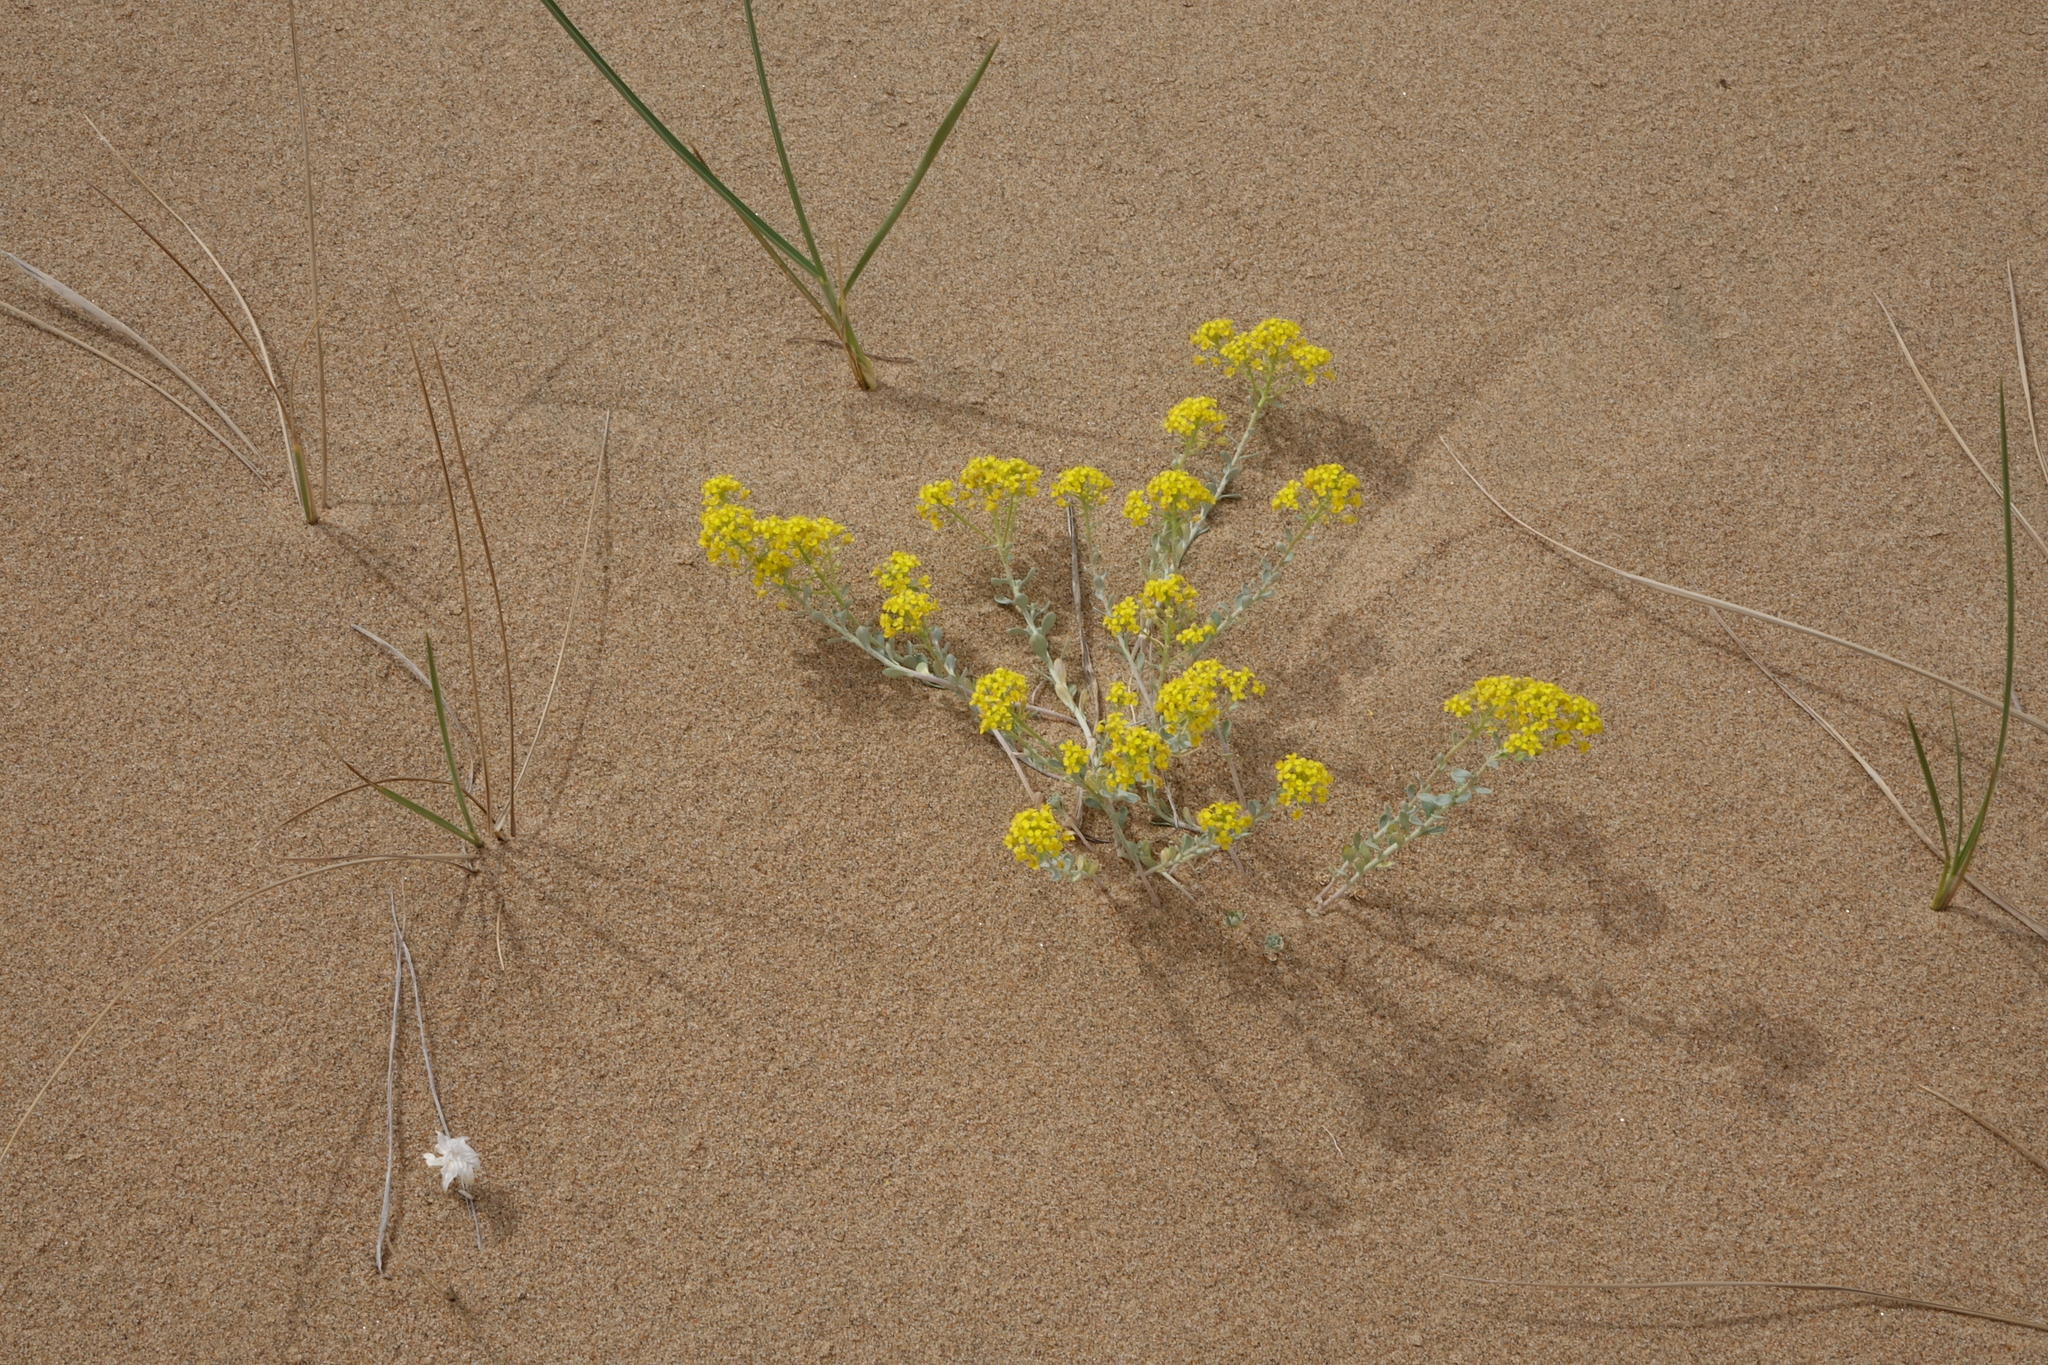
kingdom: Plantae
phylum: Tracheophyta
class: Magnoliopsida
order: Brassicales
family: Brassicaceae
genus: Odontarrhena
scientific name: Odontarrhena obovata
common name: American alyssum
